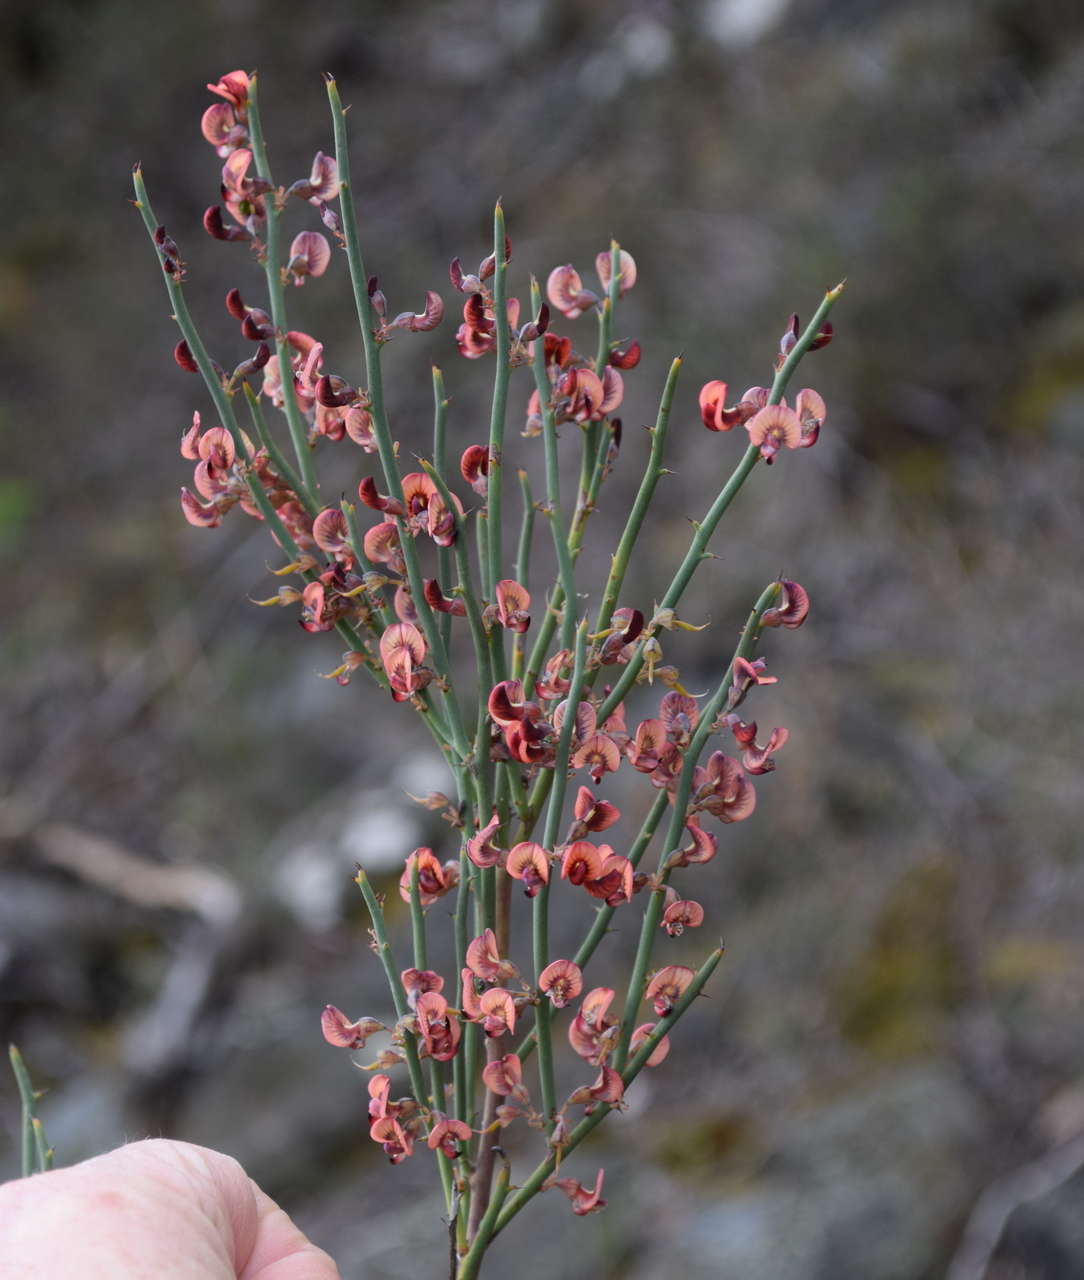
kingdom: Plantae
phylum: Tracheophyta
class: Magnoliopsida
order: Fabales
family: Fabaceae
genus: Daviesia
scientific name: Daviesia brevifolia
